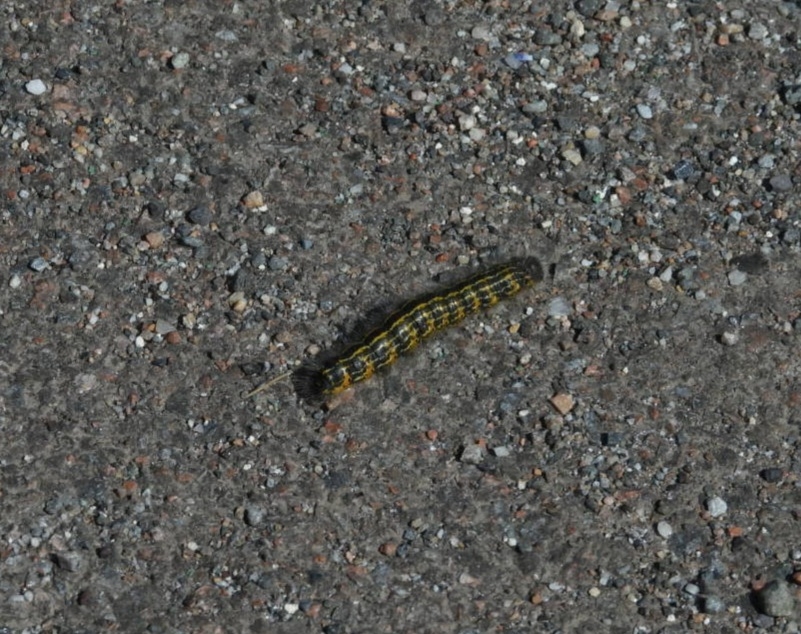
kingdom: Animalia
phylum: Arthropoda
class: Insecta
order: Lepidoptera
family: Notodontidae
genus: Phalera
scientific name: Phalera bucephala
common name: Buff-tip
